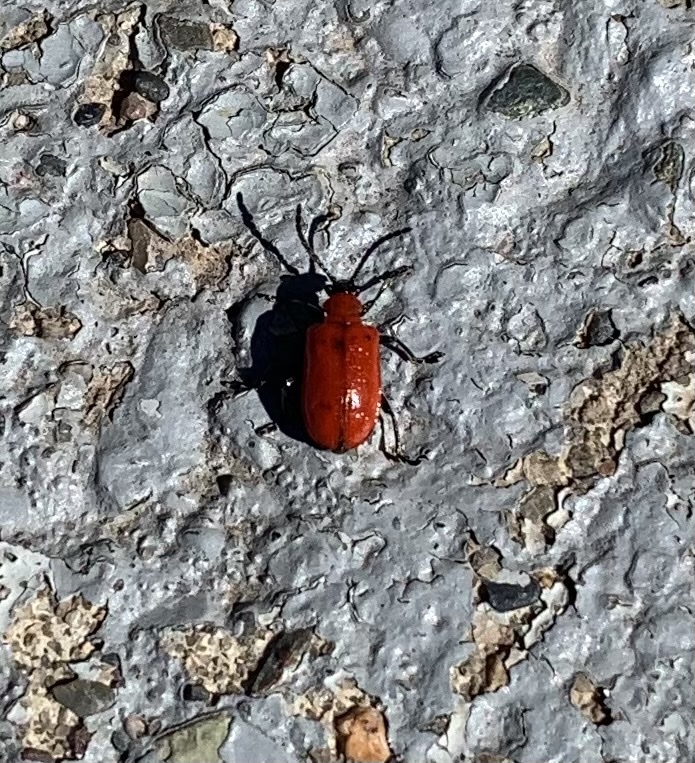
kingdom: Animalia
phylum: Arthropoda
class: Insecta
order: Coleoptera
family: Chrysomelidae
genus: Lilioceris
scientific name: Lilioceris lilii
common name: Lily beetle
